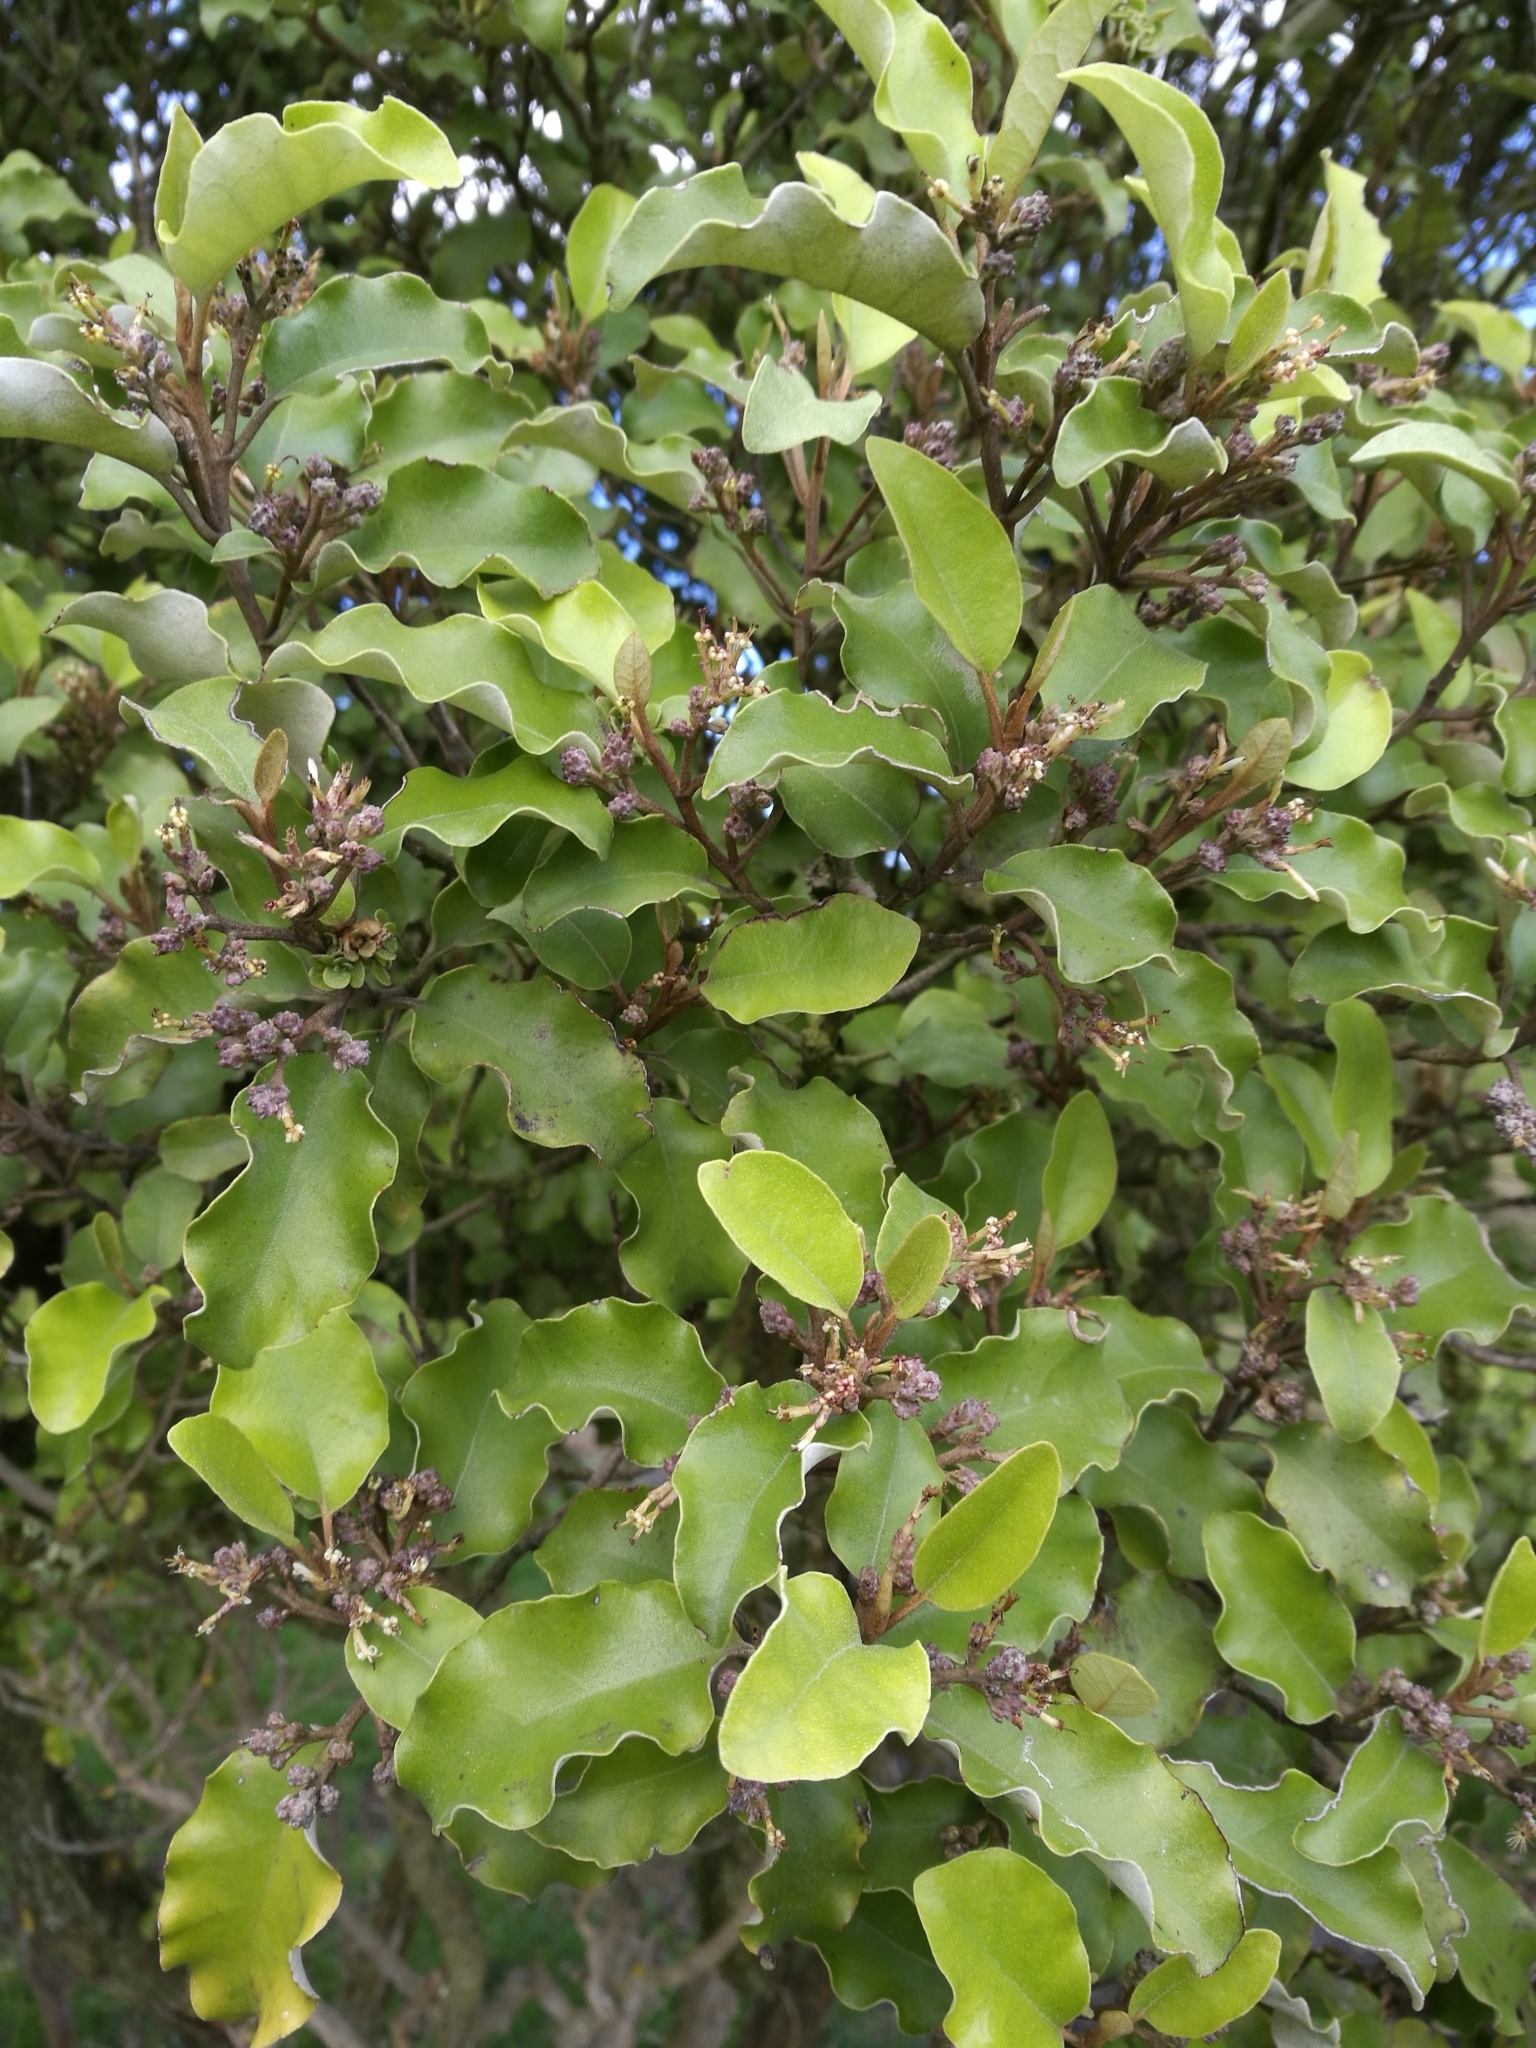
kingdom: Plantae
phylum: Tracheophyta
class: Magnoliopsida
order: Asterales
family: Asteraceae
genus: Olearia
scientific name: Olearia paniculata
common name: Akiraho
